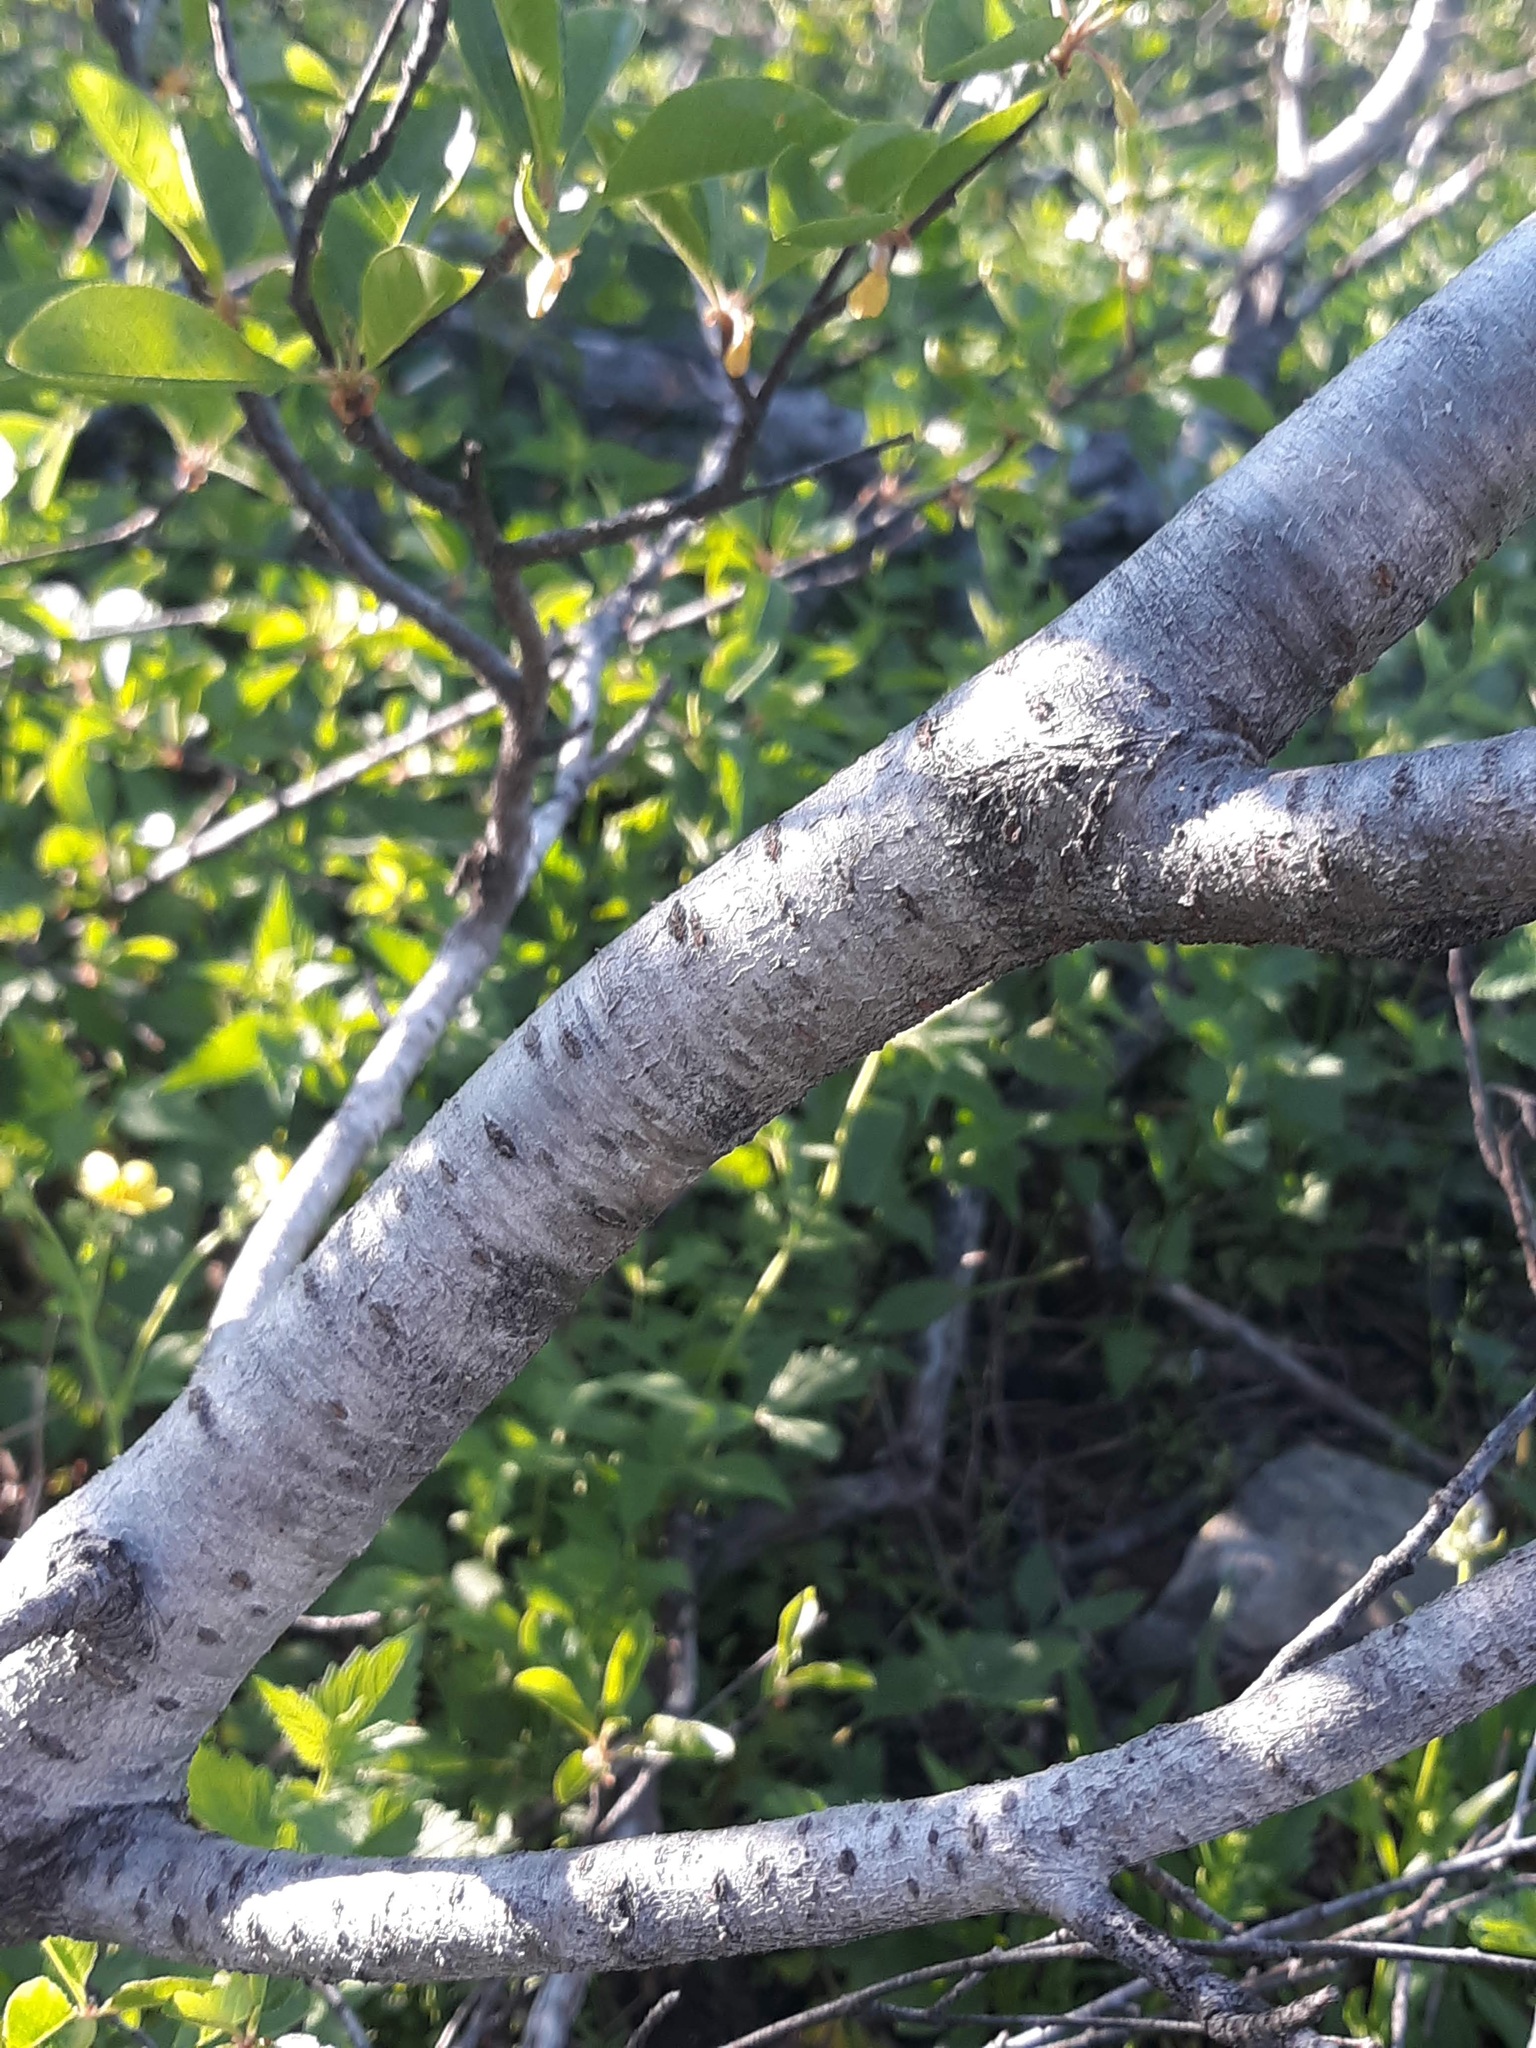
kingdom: Plantae
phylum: Tracheophyta
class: Magnoliopsida
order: Rosales
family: Rosaceae
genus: Prunus
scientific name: Prunus emarginata
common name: Bitter cherry
